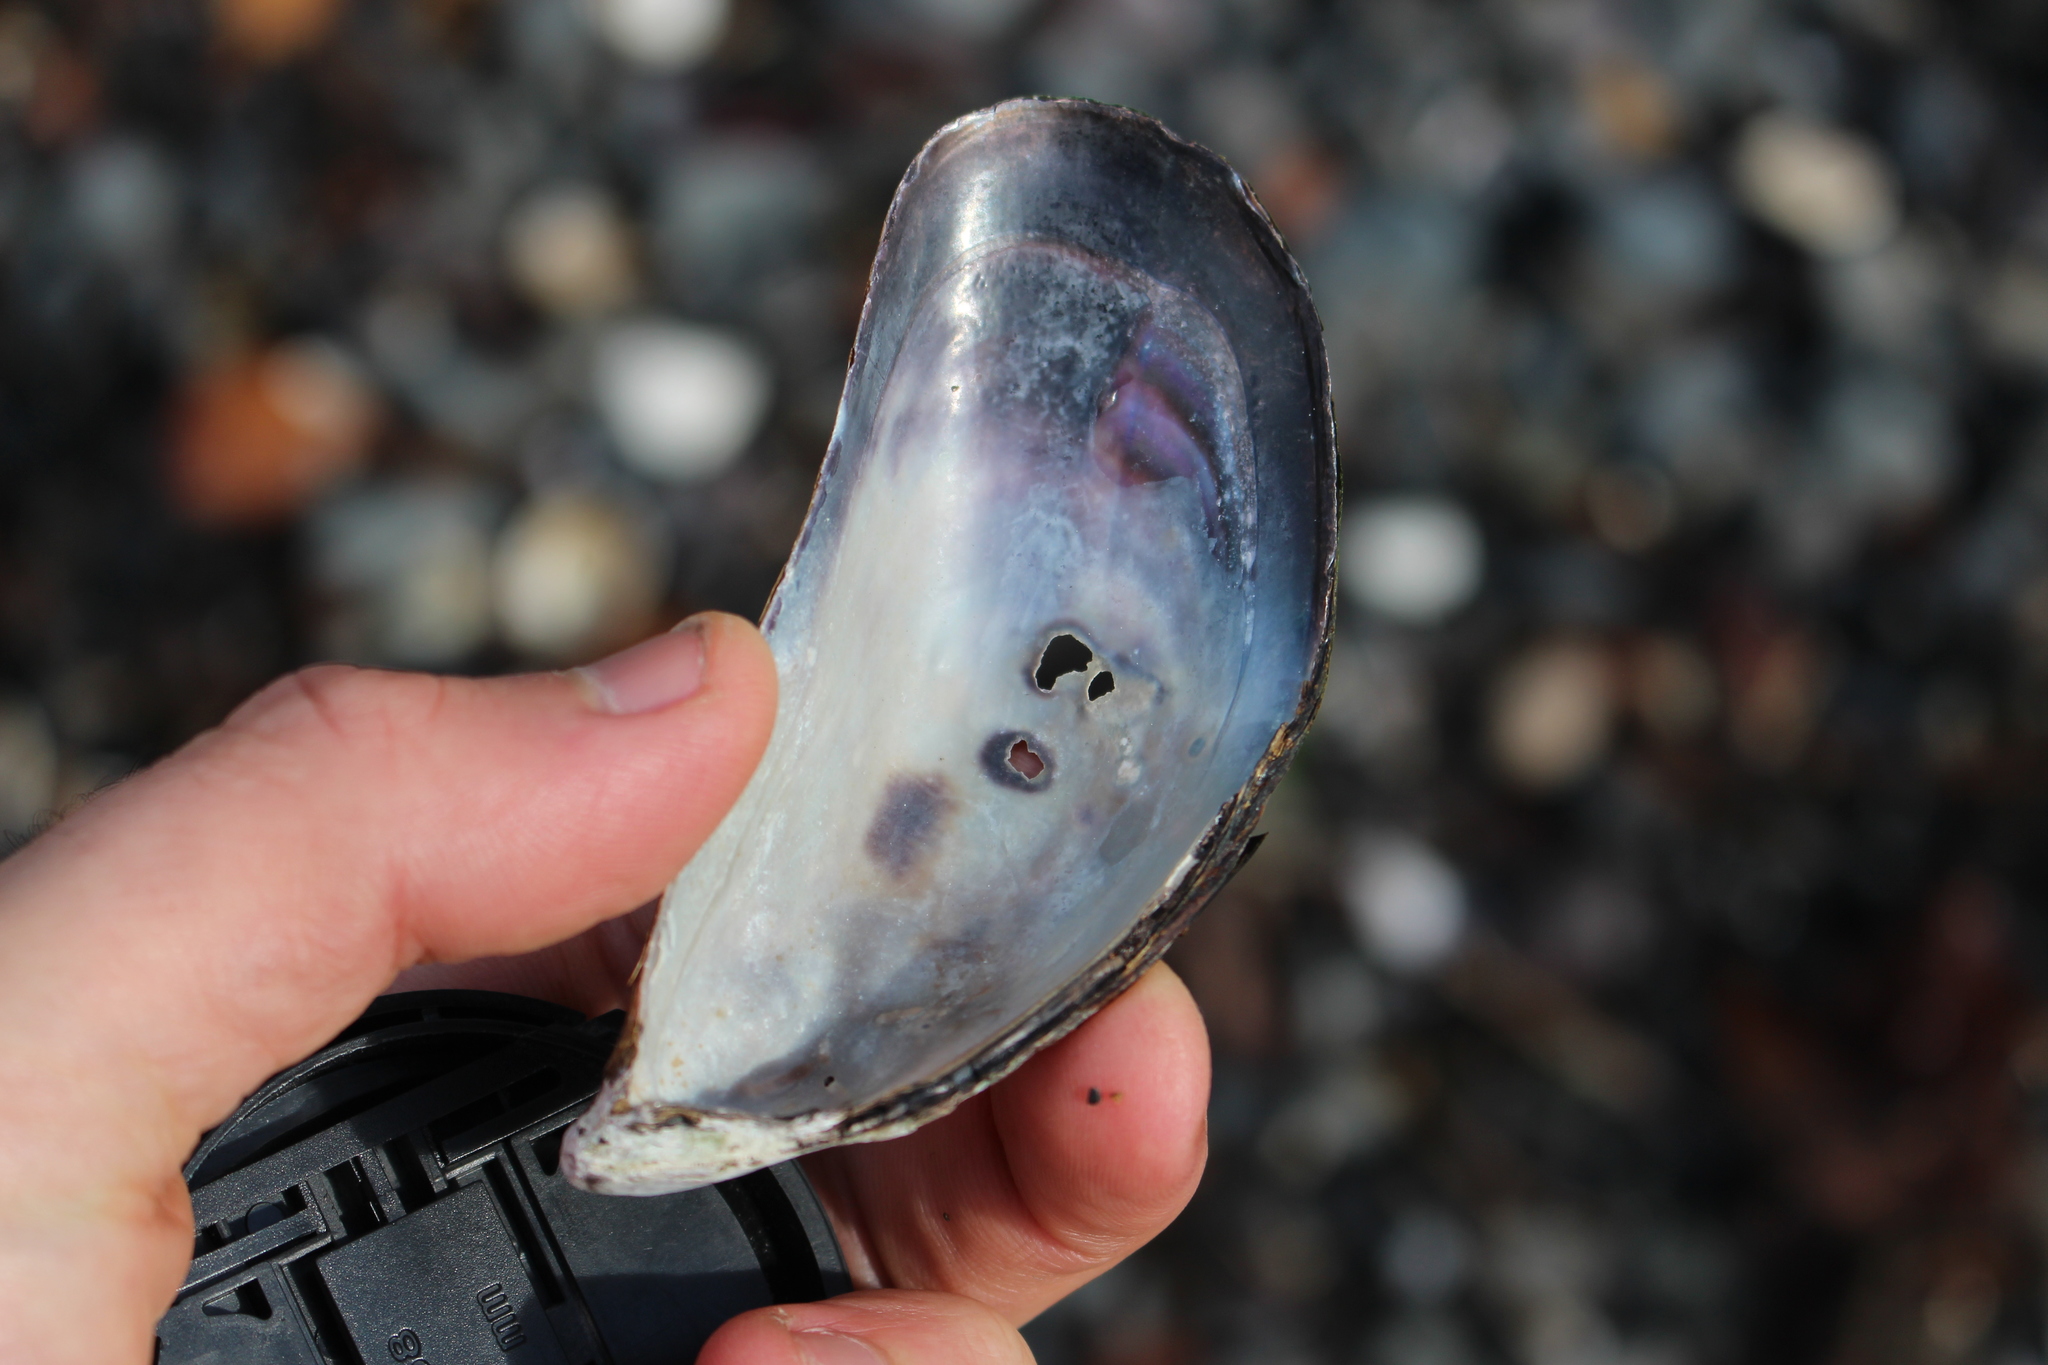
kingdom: Animalia
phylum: Mollusca
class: Bivalvia
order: Mytilida
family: Mytilidae
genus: Perna
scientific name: Perna canaliculus
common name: New zealand greenshelltm
